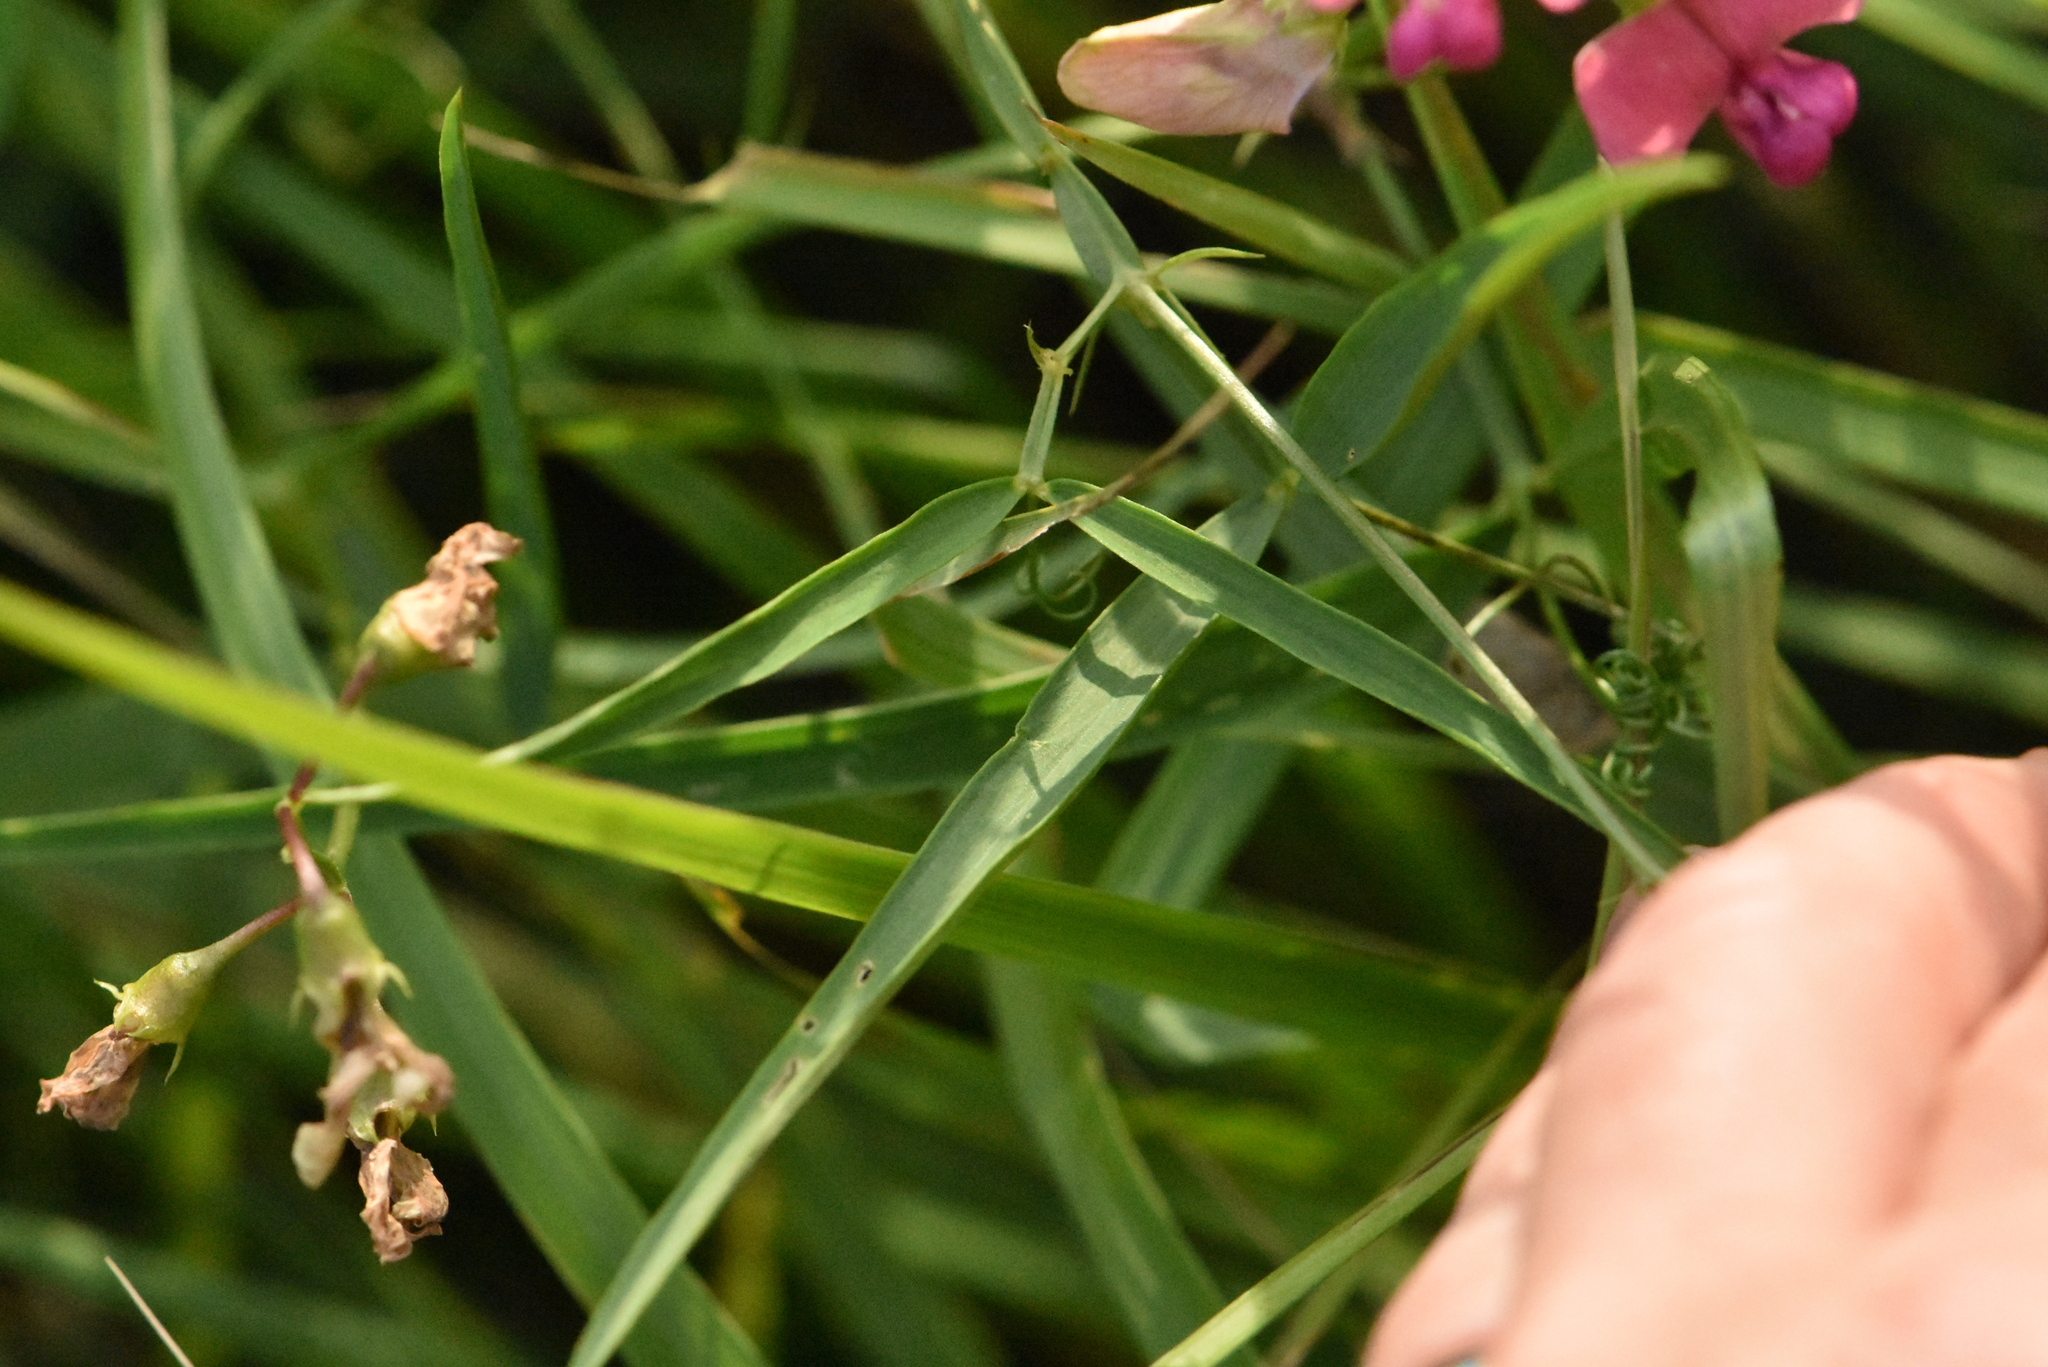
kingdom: Plantae
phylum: Tracheophyta
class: Magnoliopsida
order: Fabales
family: Fabaceae
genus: Lathyrus
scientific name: Lathyrus sylvestris
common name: Flat pea
